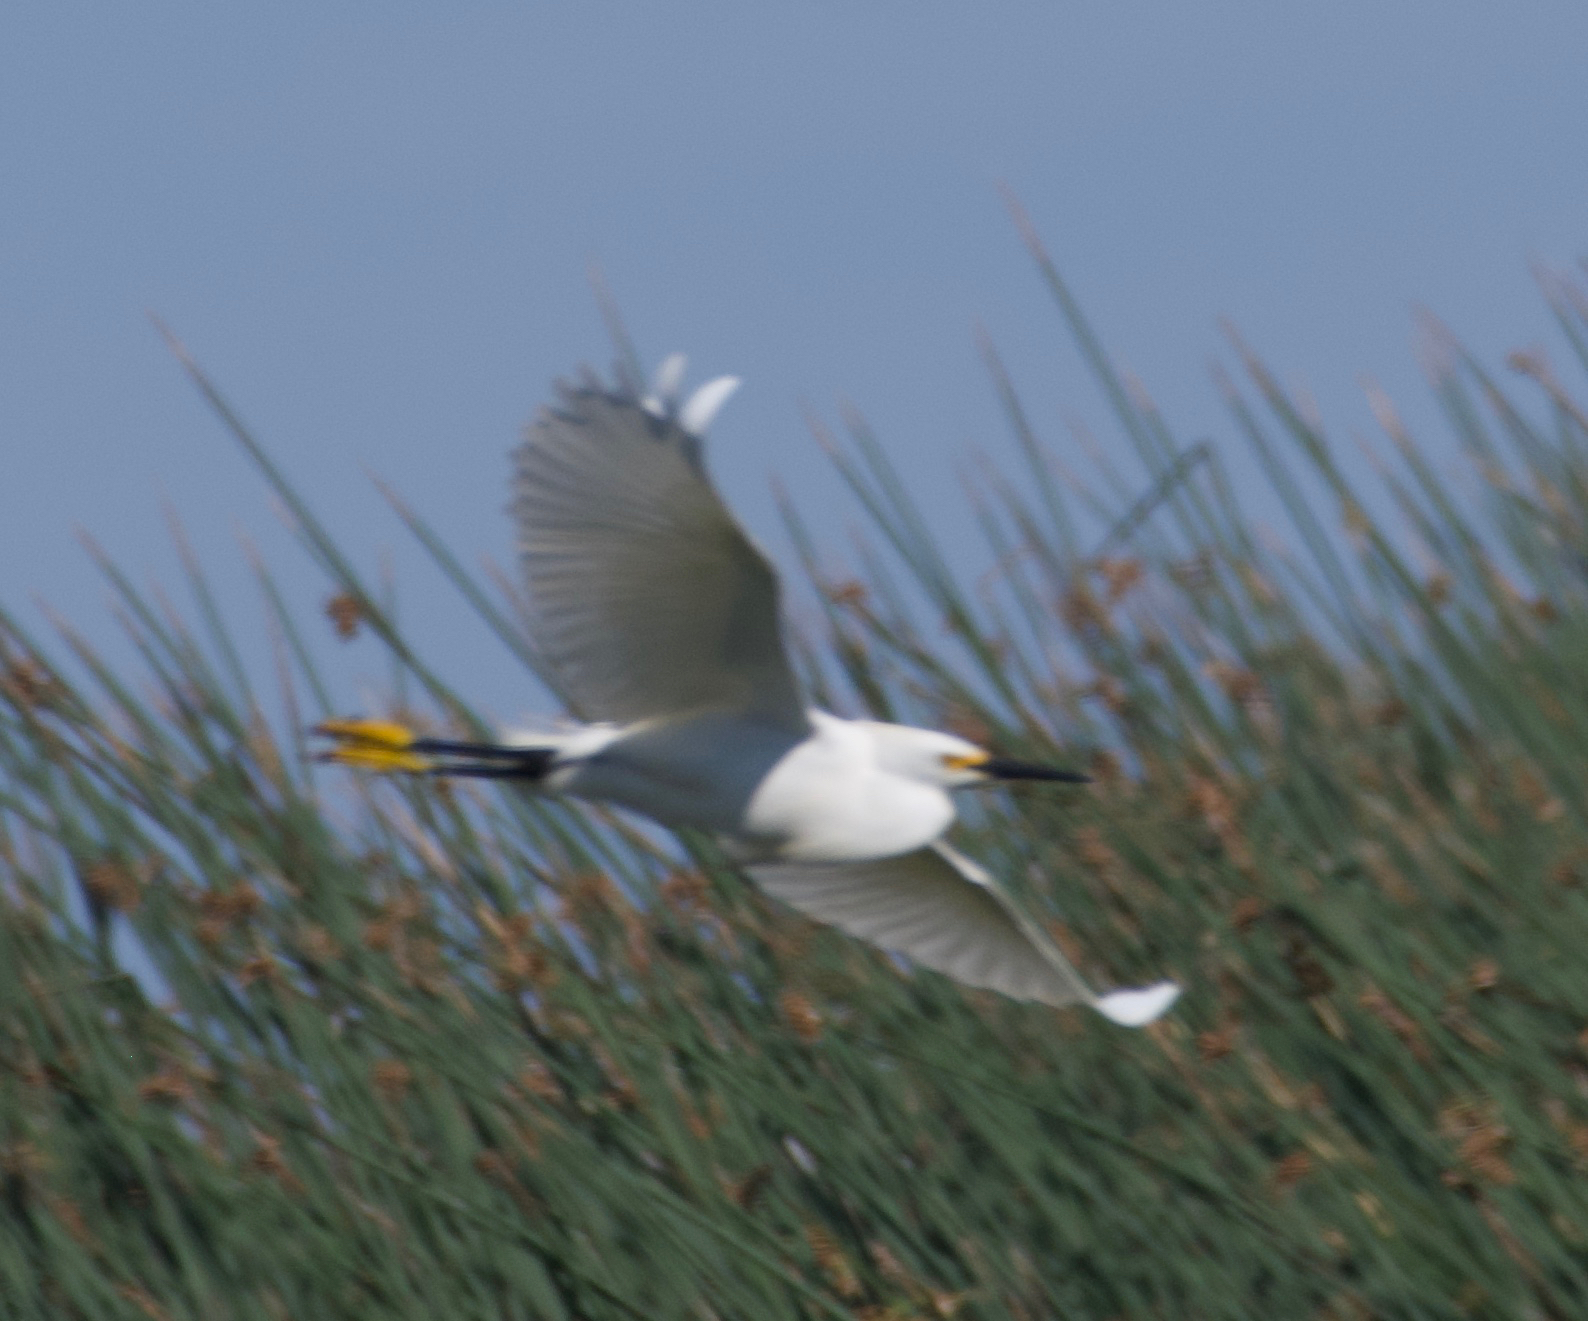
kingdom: Animalia
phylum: Chordata
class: Aves
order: Pelecaniformes
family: Ardeidae
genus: Egretta
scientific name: Egretta thula
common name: Snowy egret
